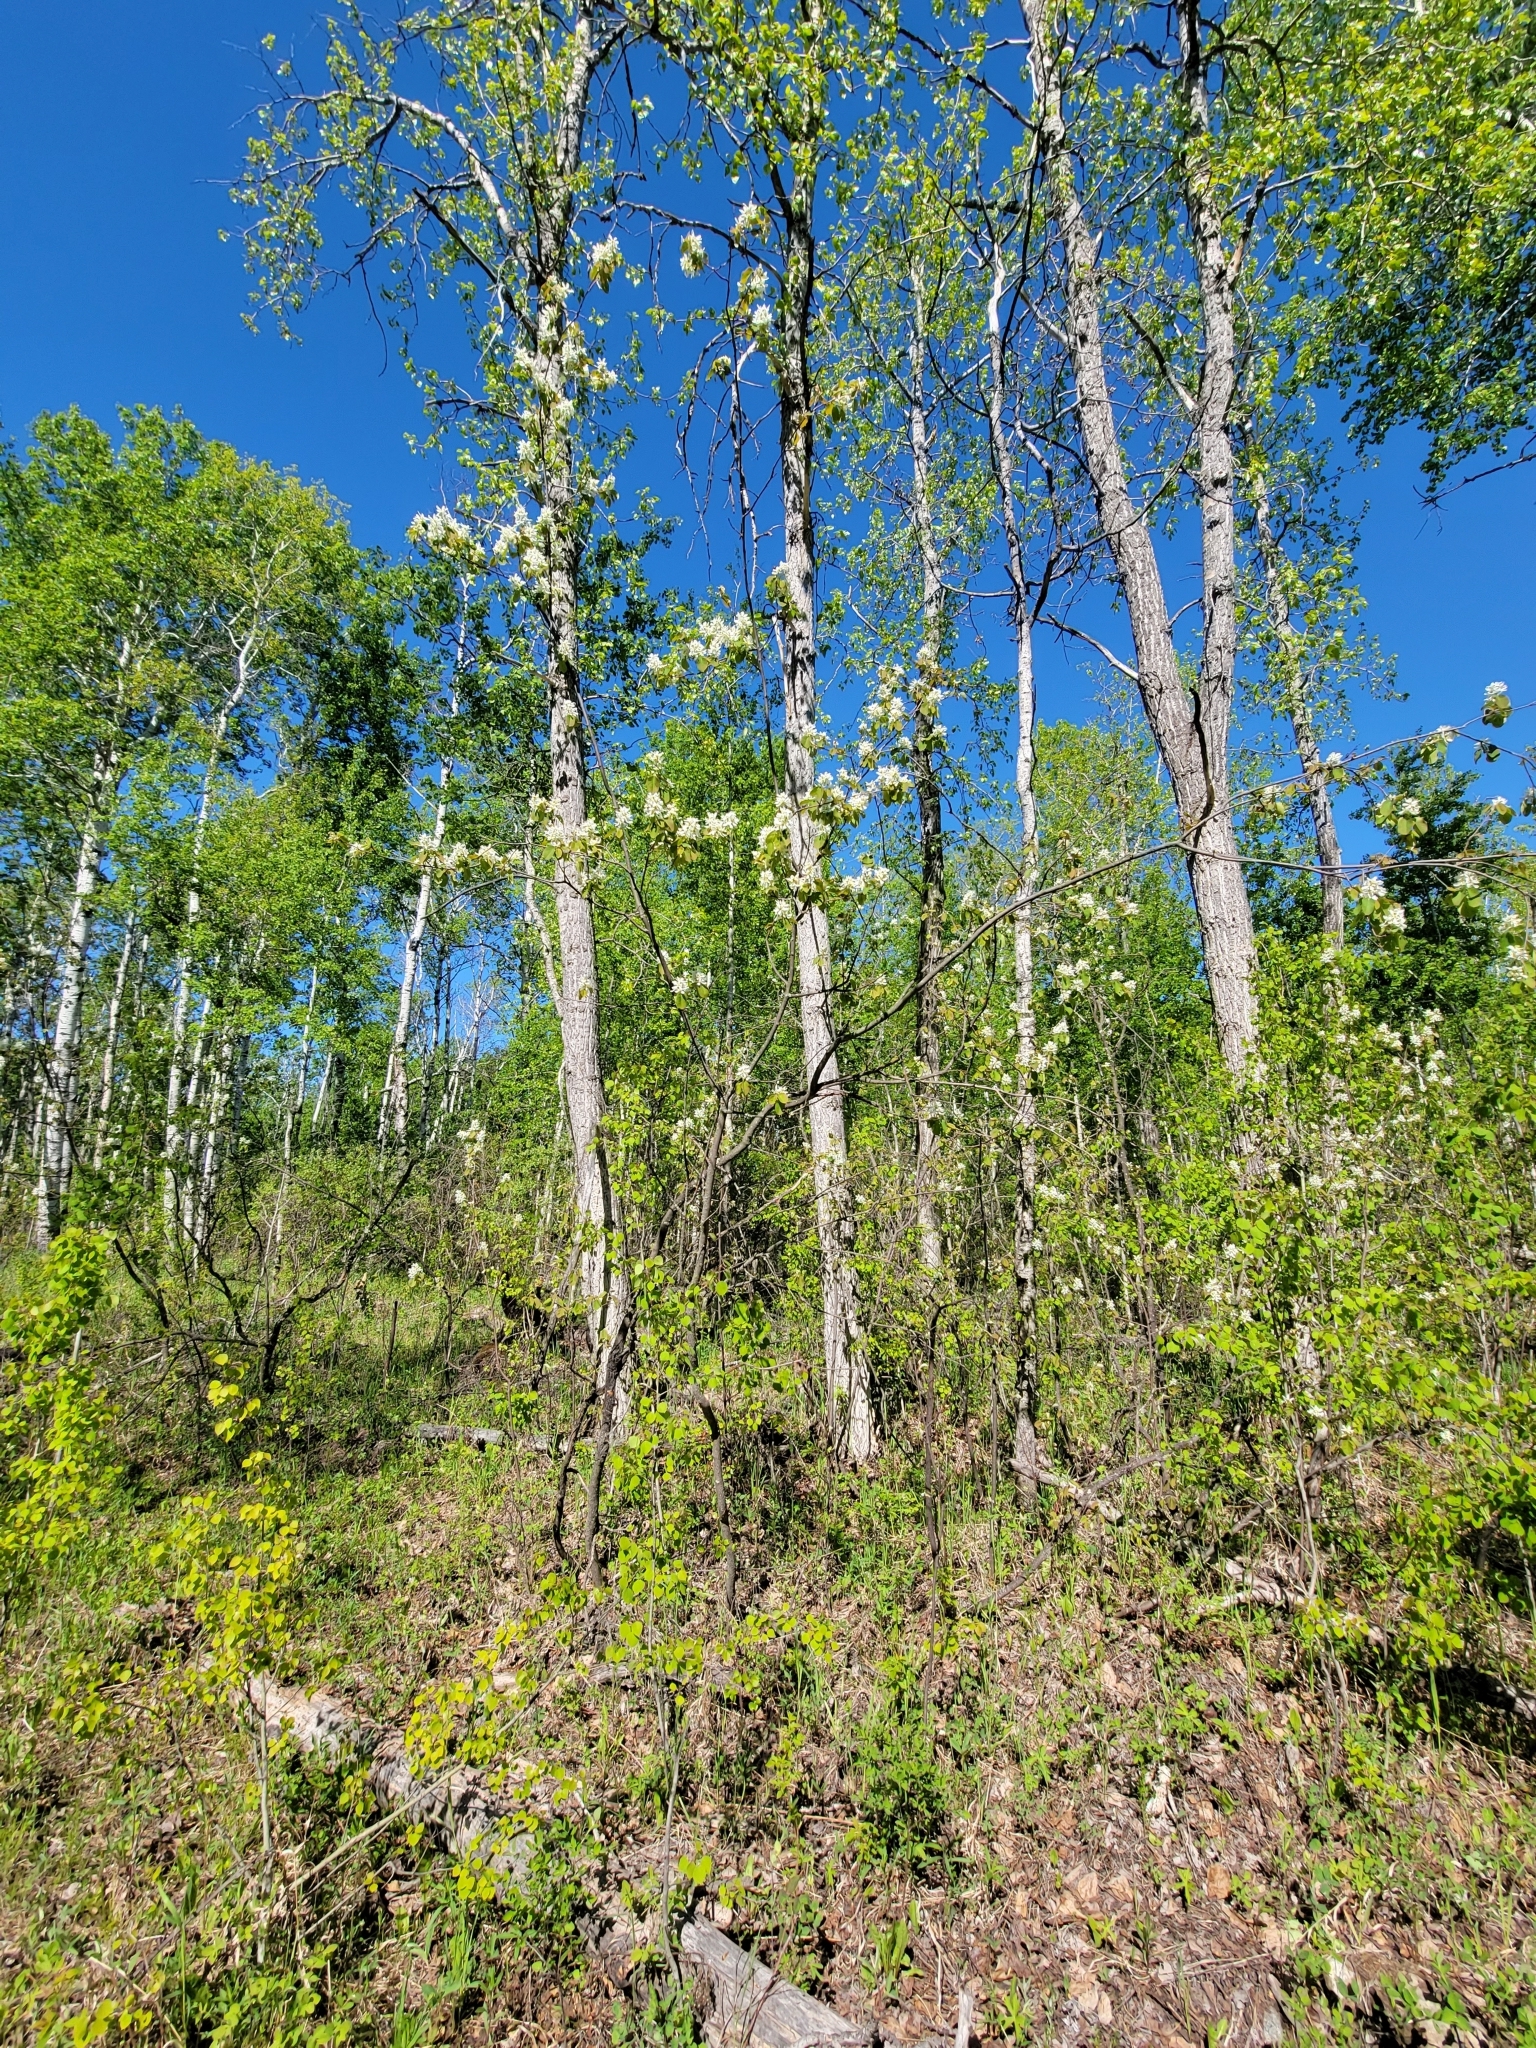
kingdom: Plantae
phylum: Tracheophyta
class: Magnoliopsida
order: Rosales
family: Rosaceae
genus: Amelanchier
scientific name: Amelanchier alnifolia
